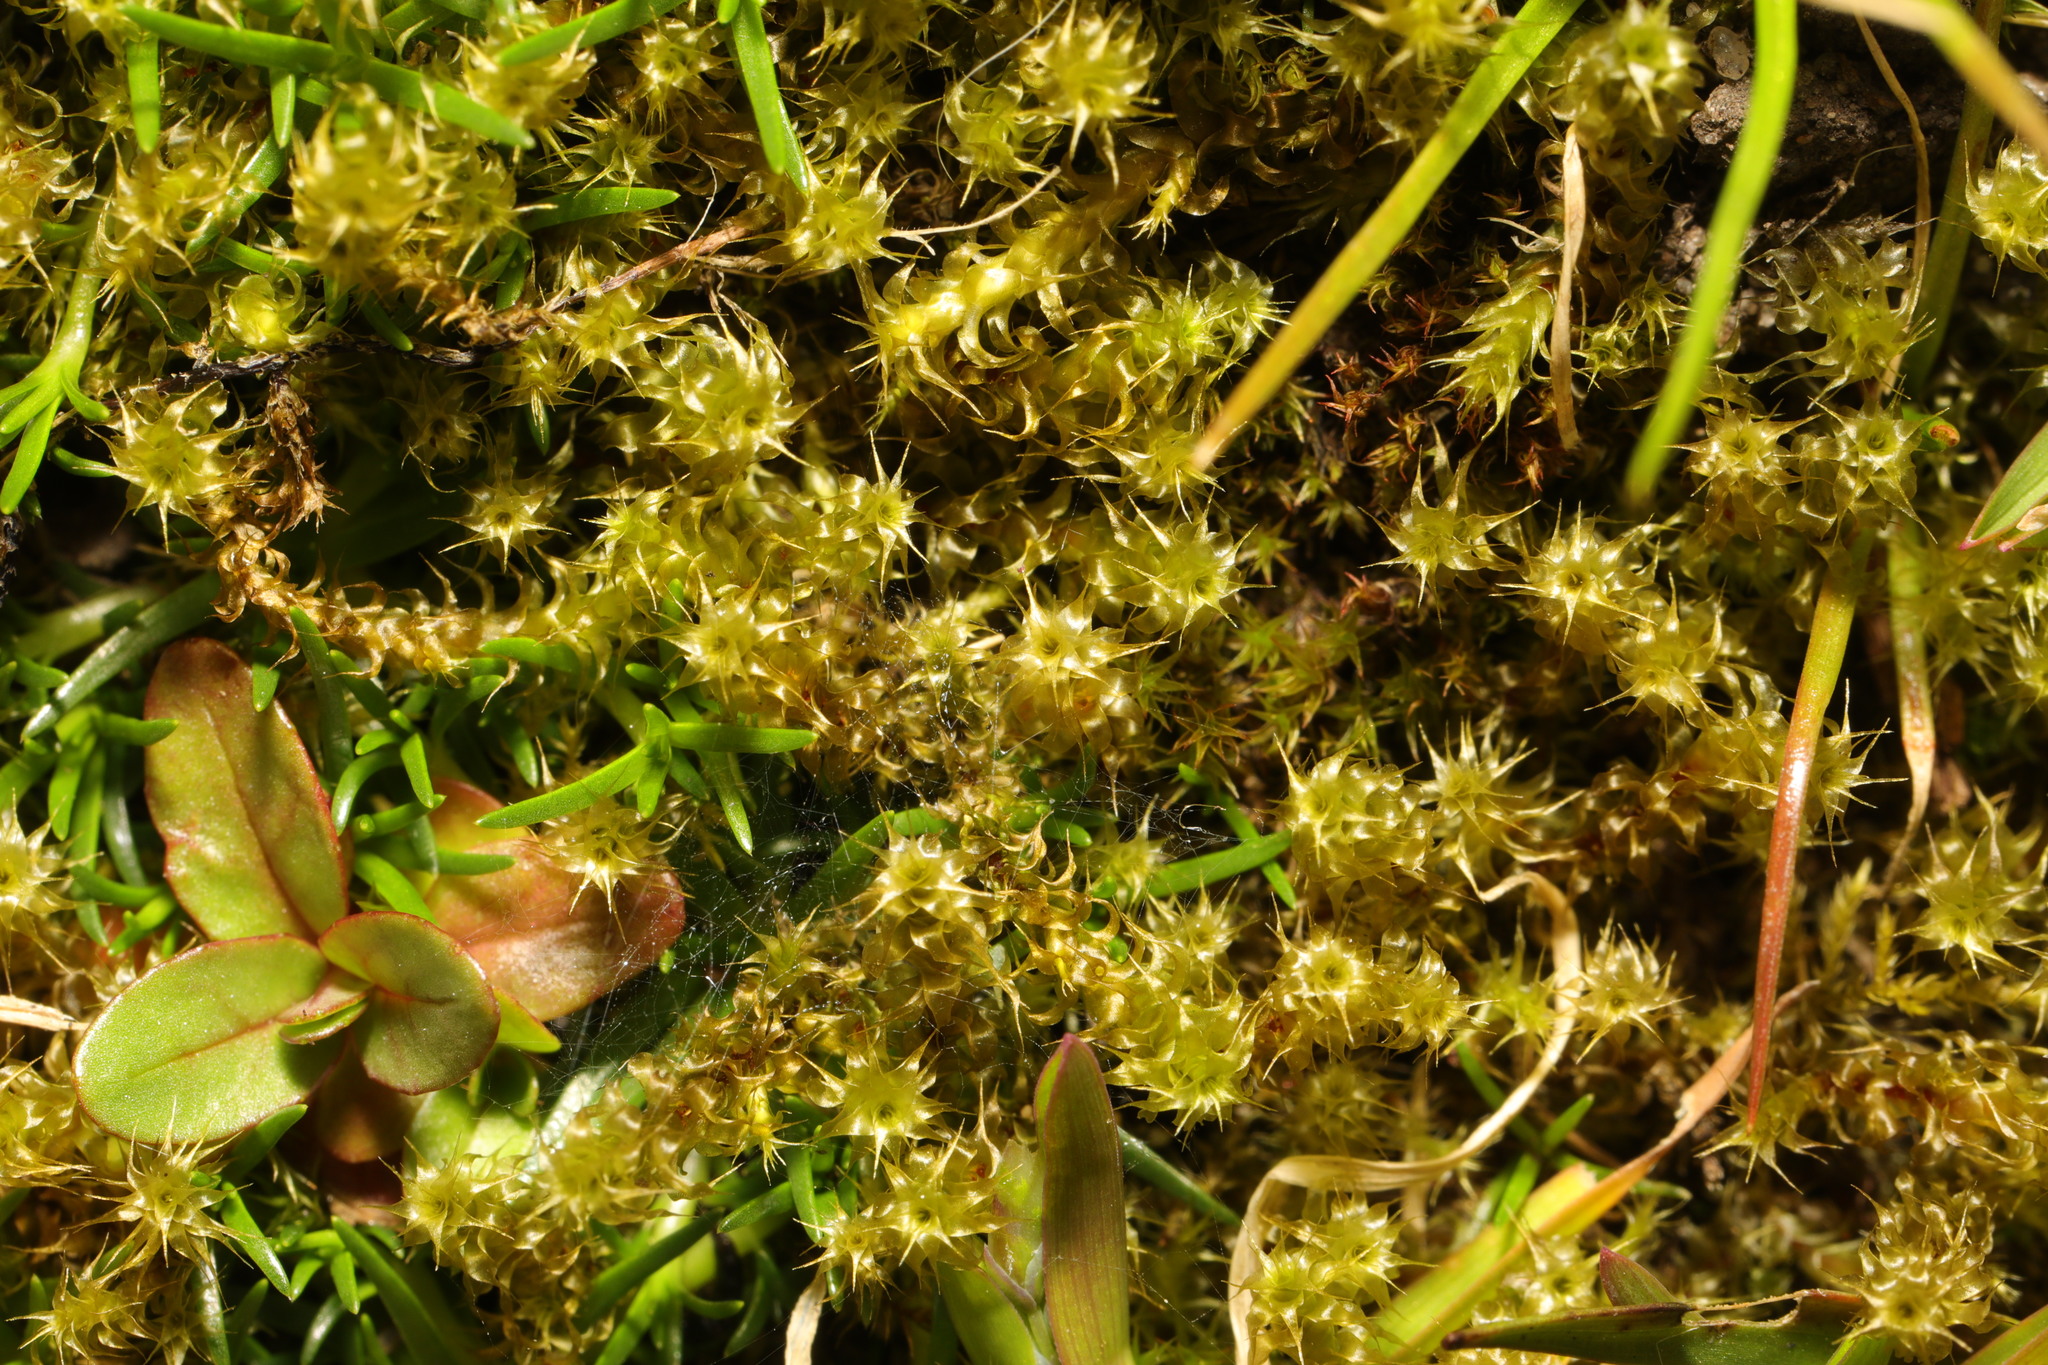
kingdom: Plantae
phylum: Bryophyta
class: Bryopsida
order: Hypnales
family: Hylocomiaceae
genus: Rhytidiadelphus
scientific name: Rhytidiadelphus squarrosus
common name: Springy turf-moss
